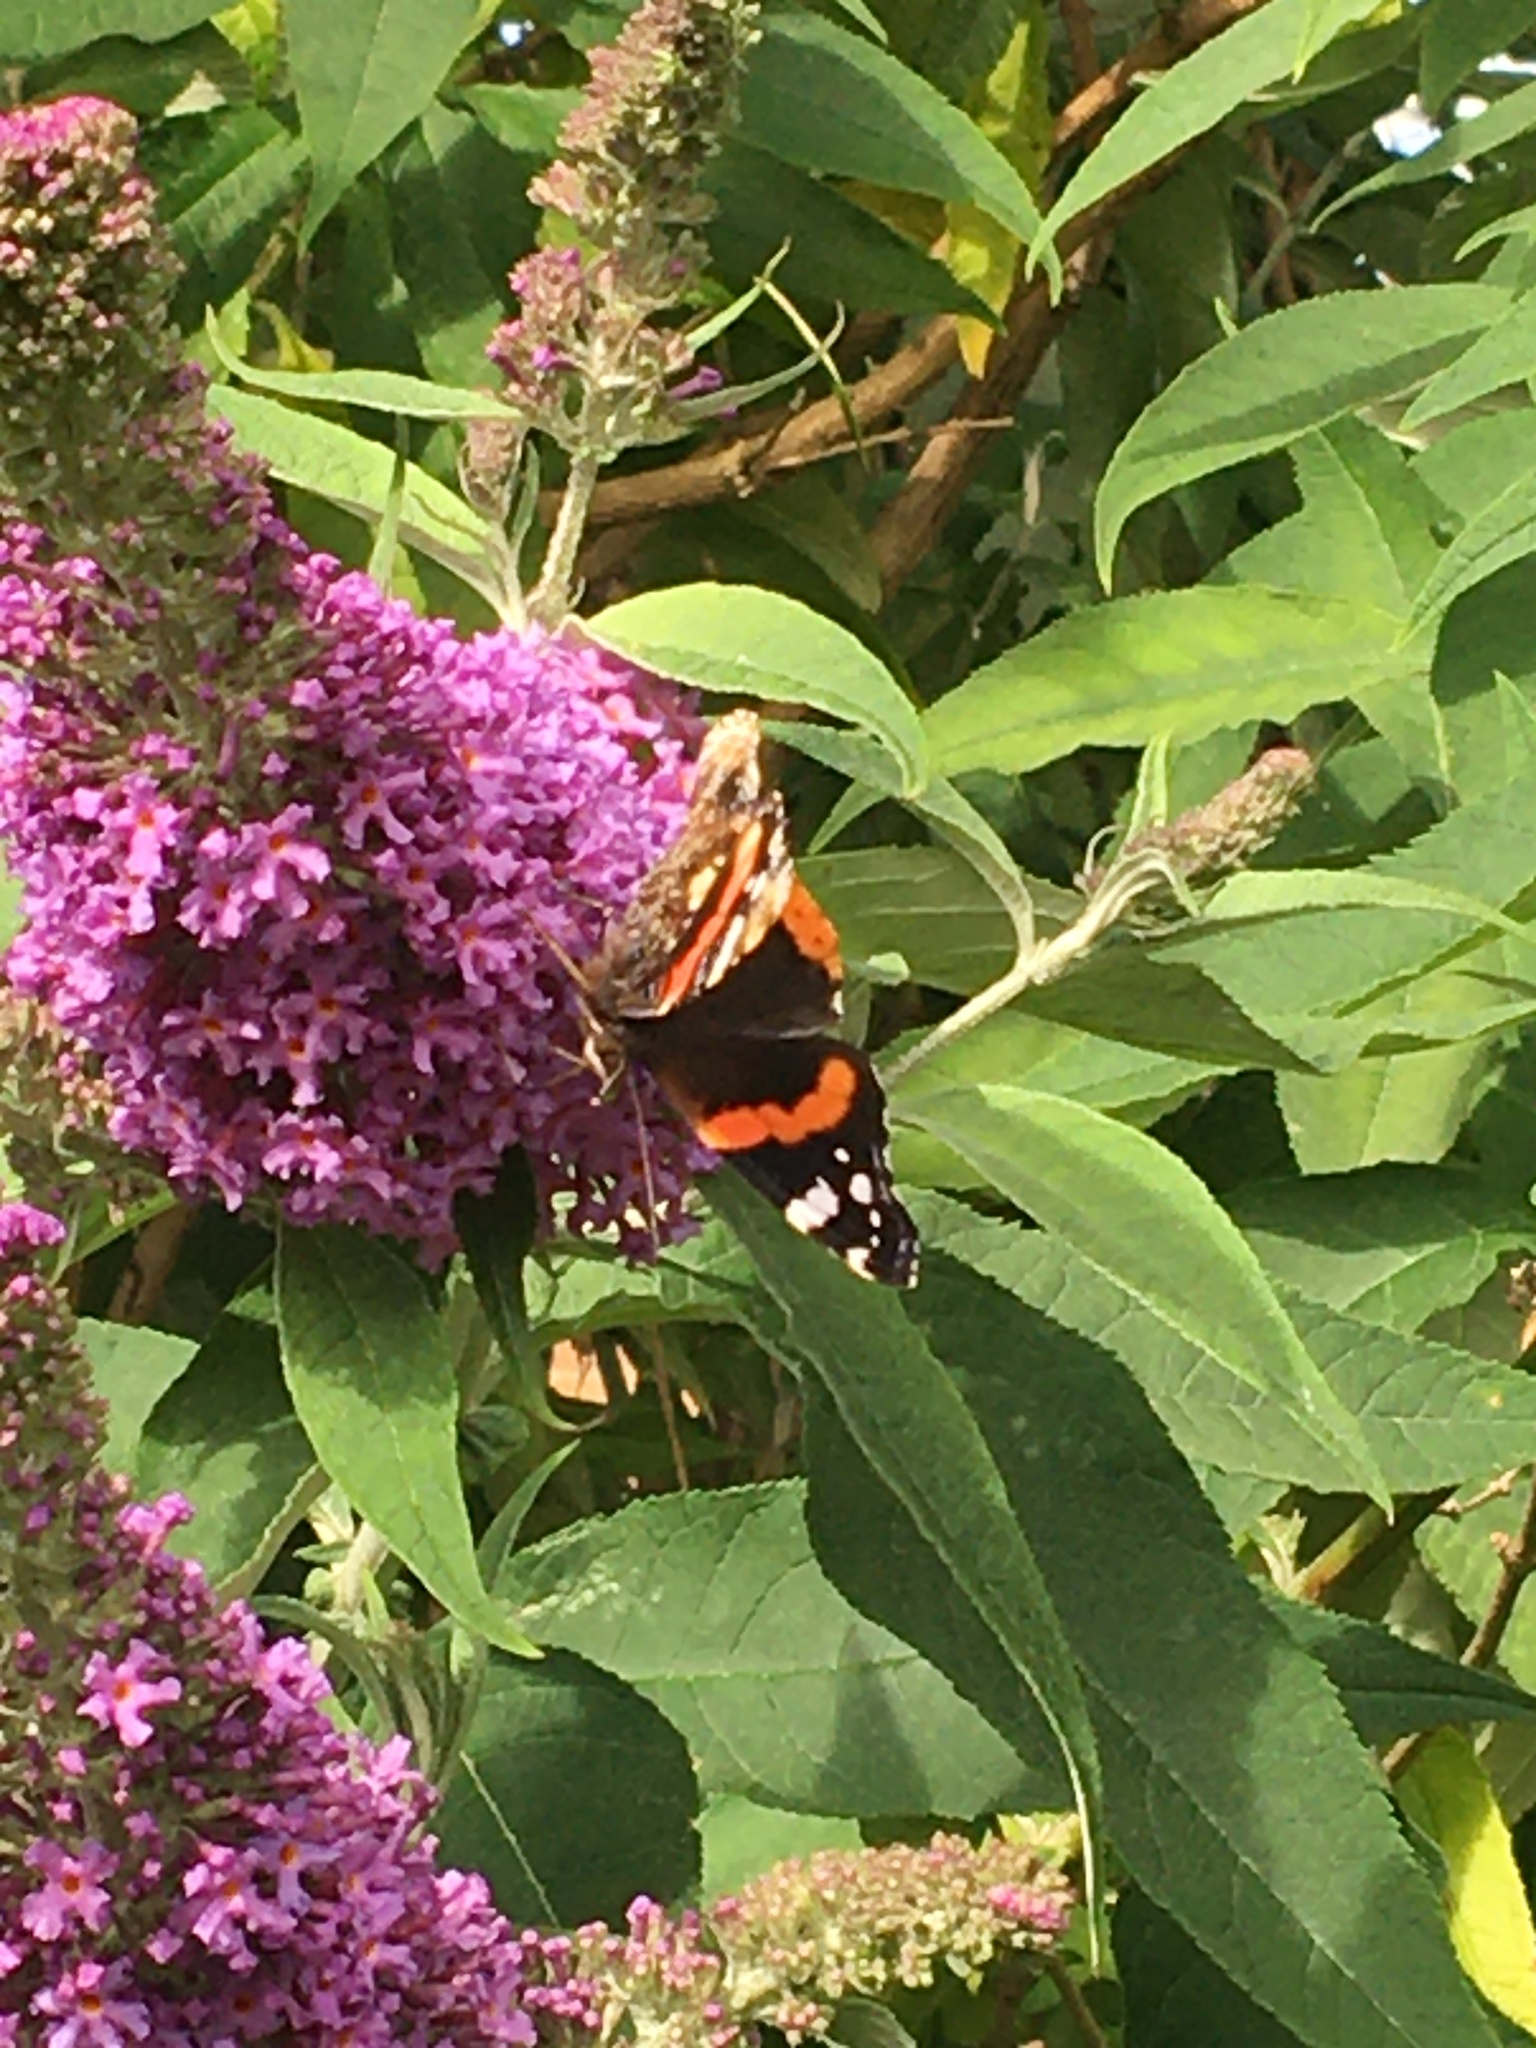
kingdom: Animalia
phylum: Arthropoda
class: Insecta
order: Lepidoptera
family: Nymphalidae
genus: Vanessa
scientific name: Vanessa atalanta
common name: Red admiral
